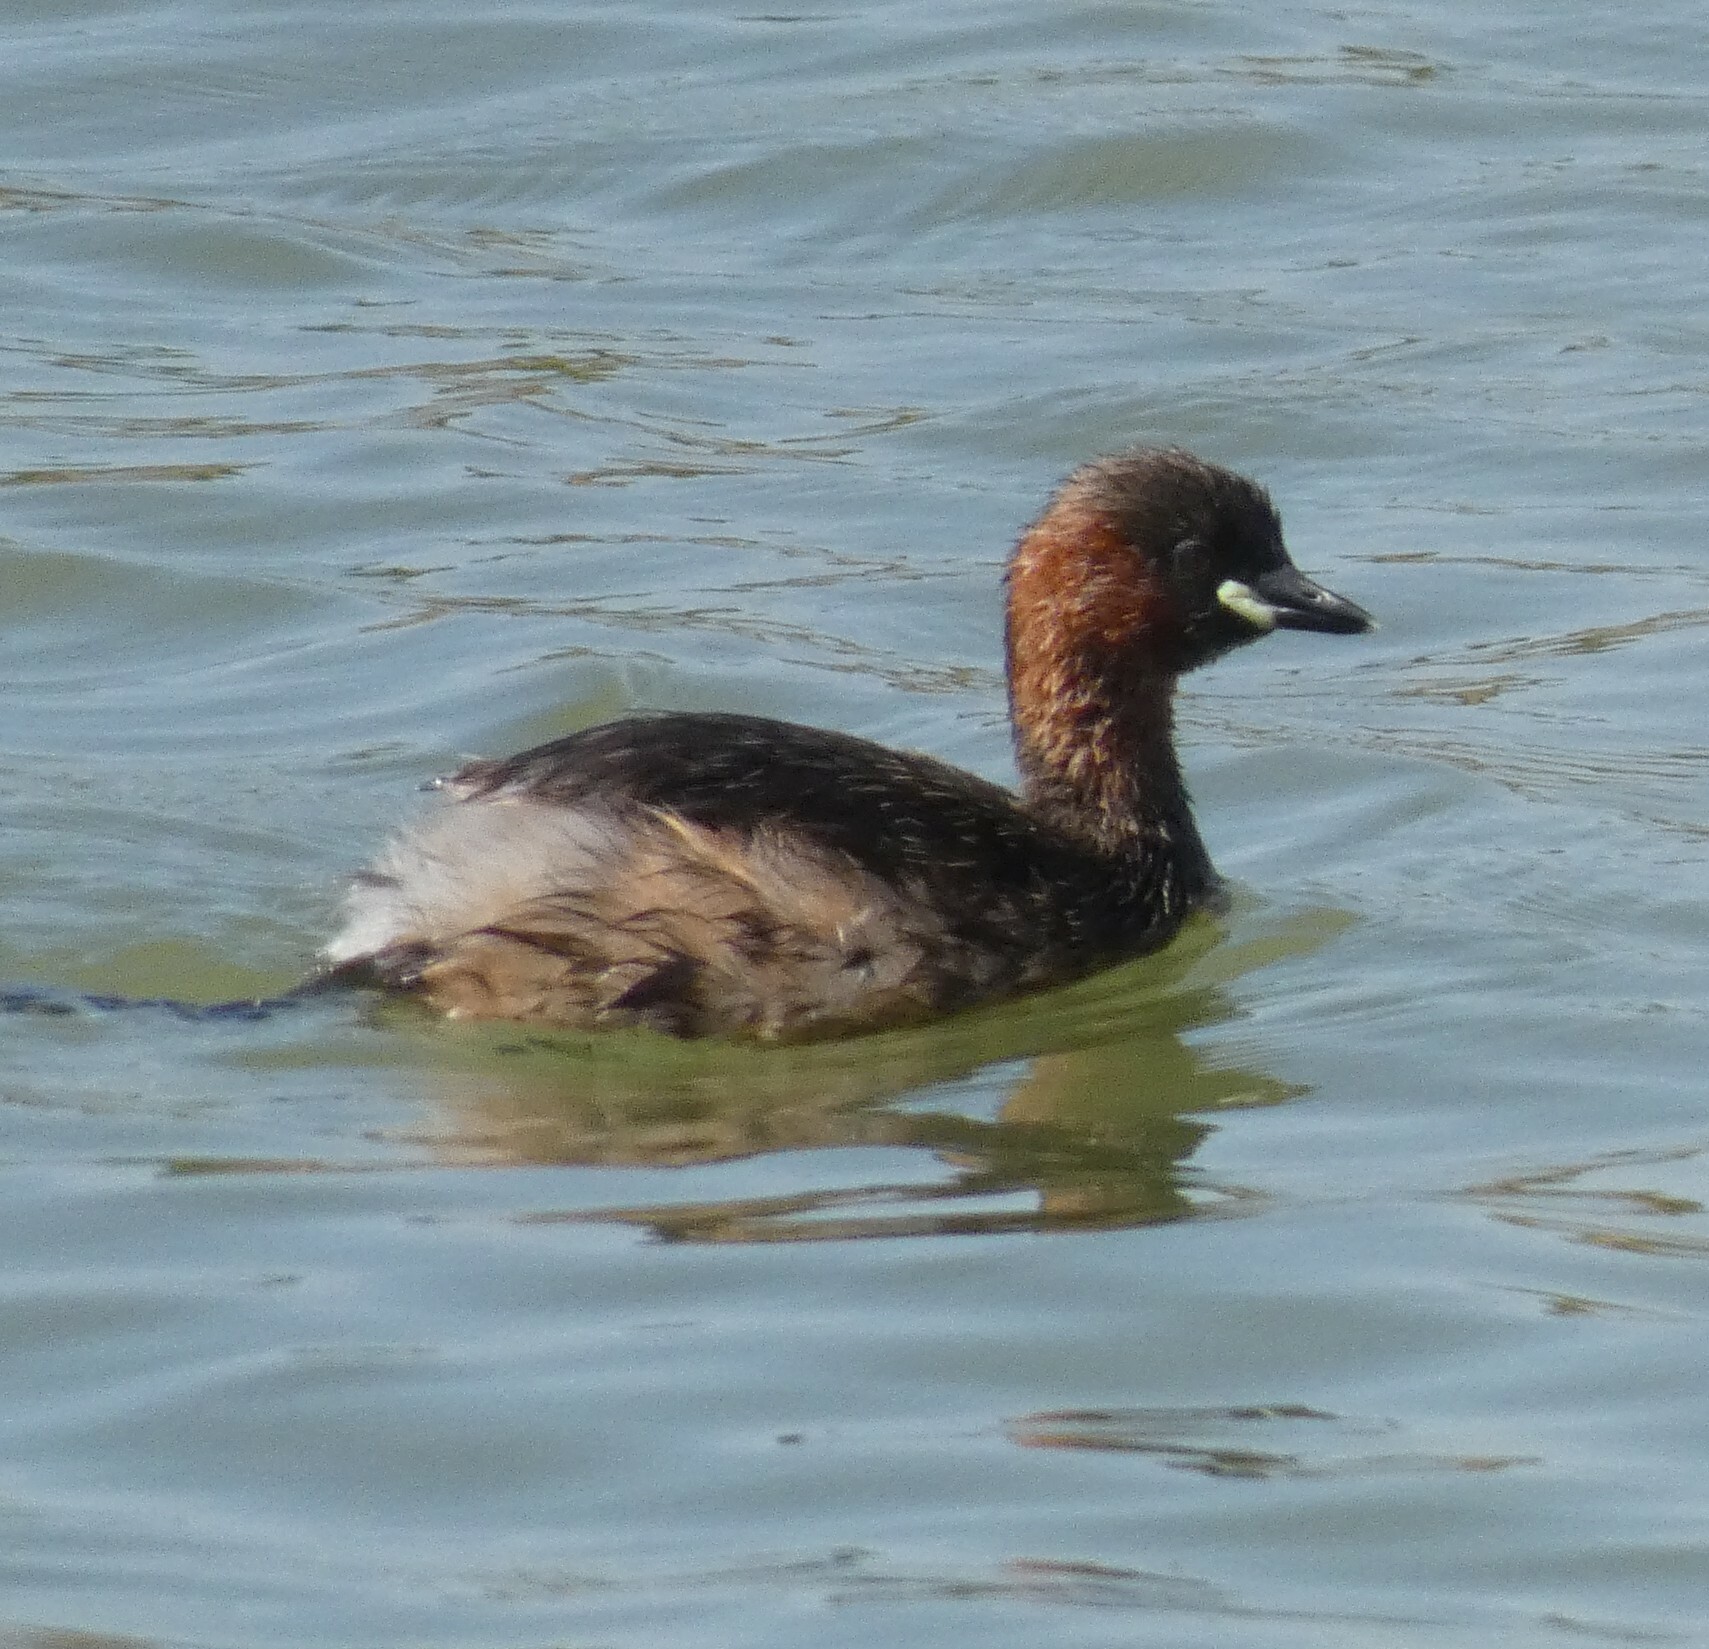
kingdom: Animalia
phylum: Chordata
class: Aves
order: Podicipediformes
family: Podicipedidae
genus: Tachybaptus
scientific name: Tachybaptus ruficollis
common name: Little grebe
